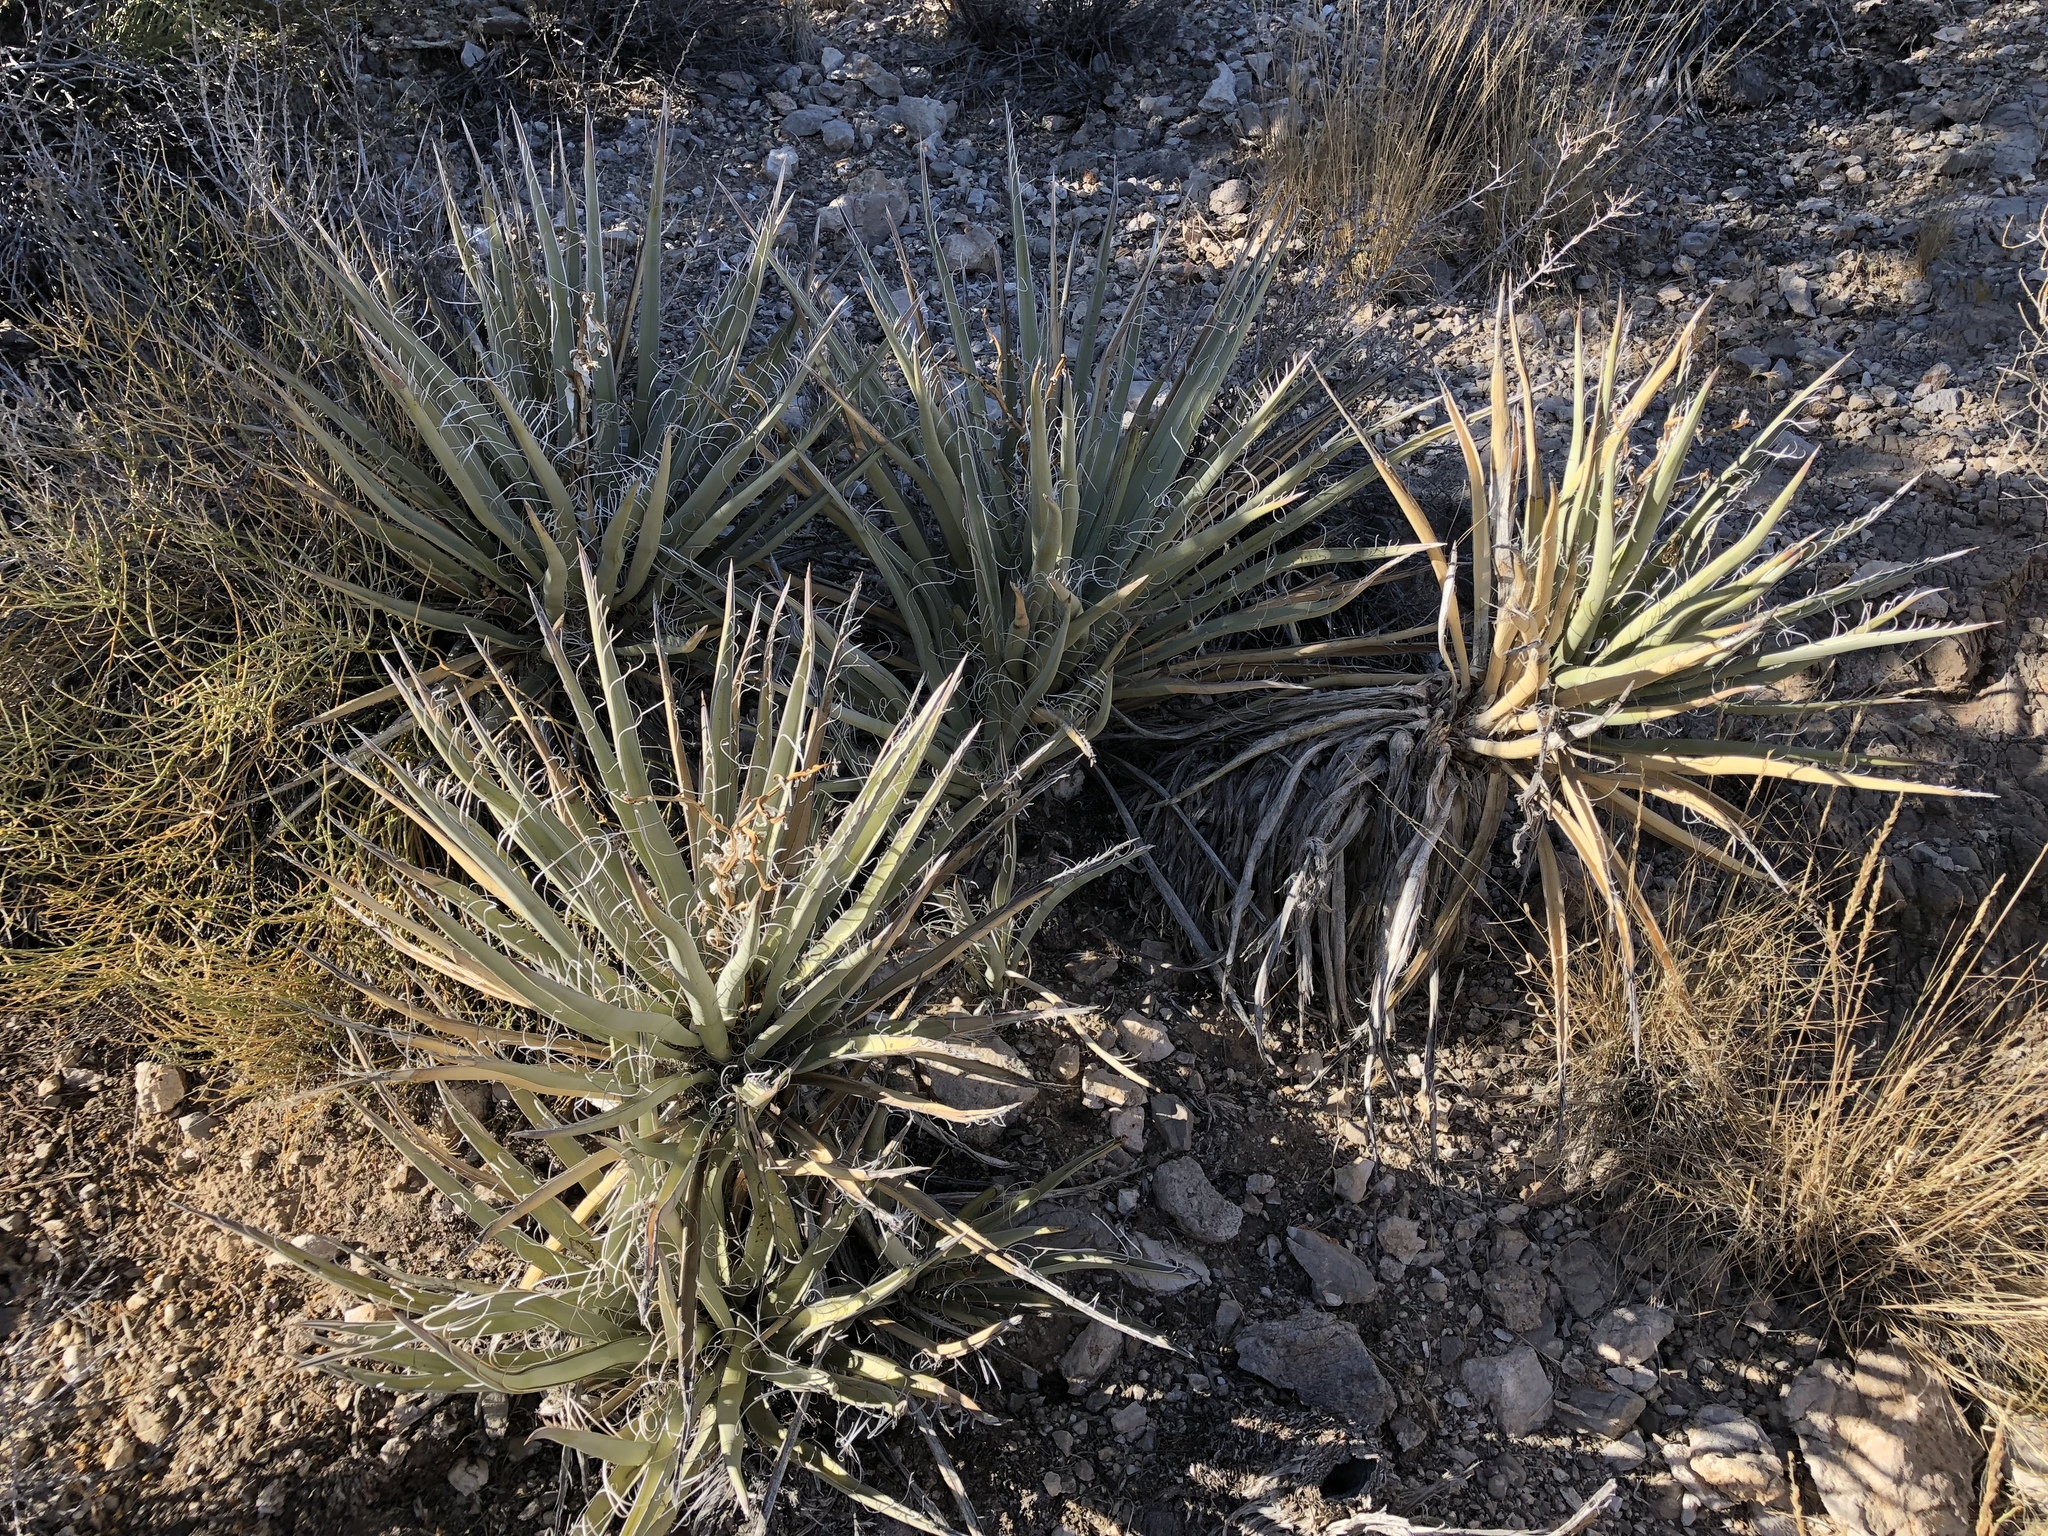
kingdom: Plantae
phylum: Tracheophyta
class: Liliopsida
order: Asparagales
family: Asparagaceae
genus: Yucca
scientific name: Yucca baccata
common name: Banana yucca
